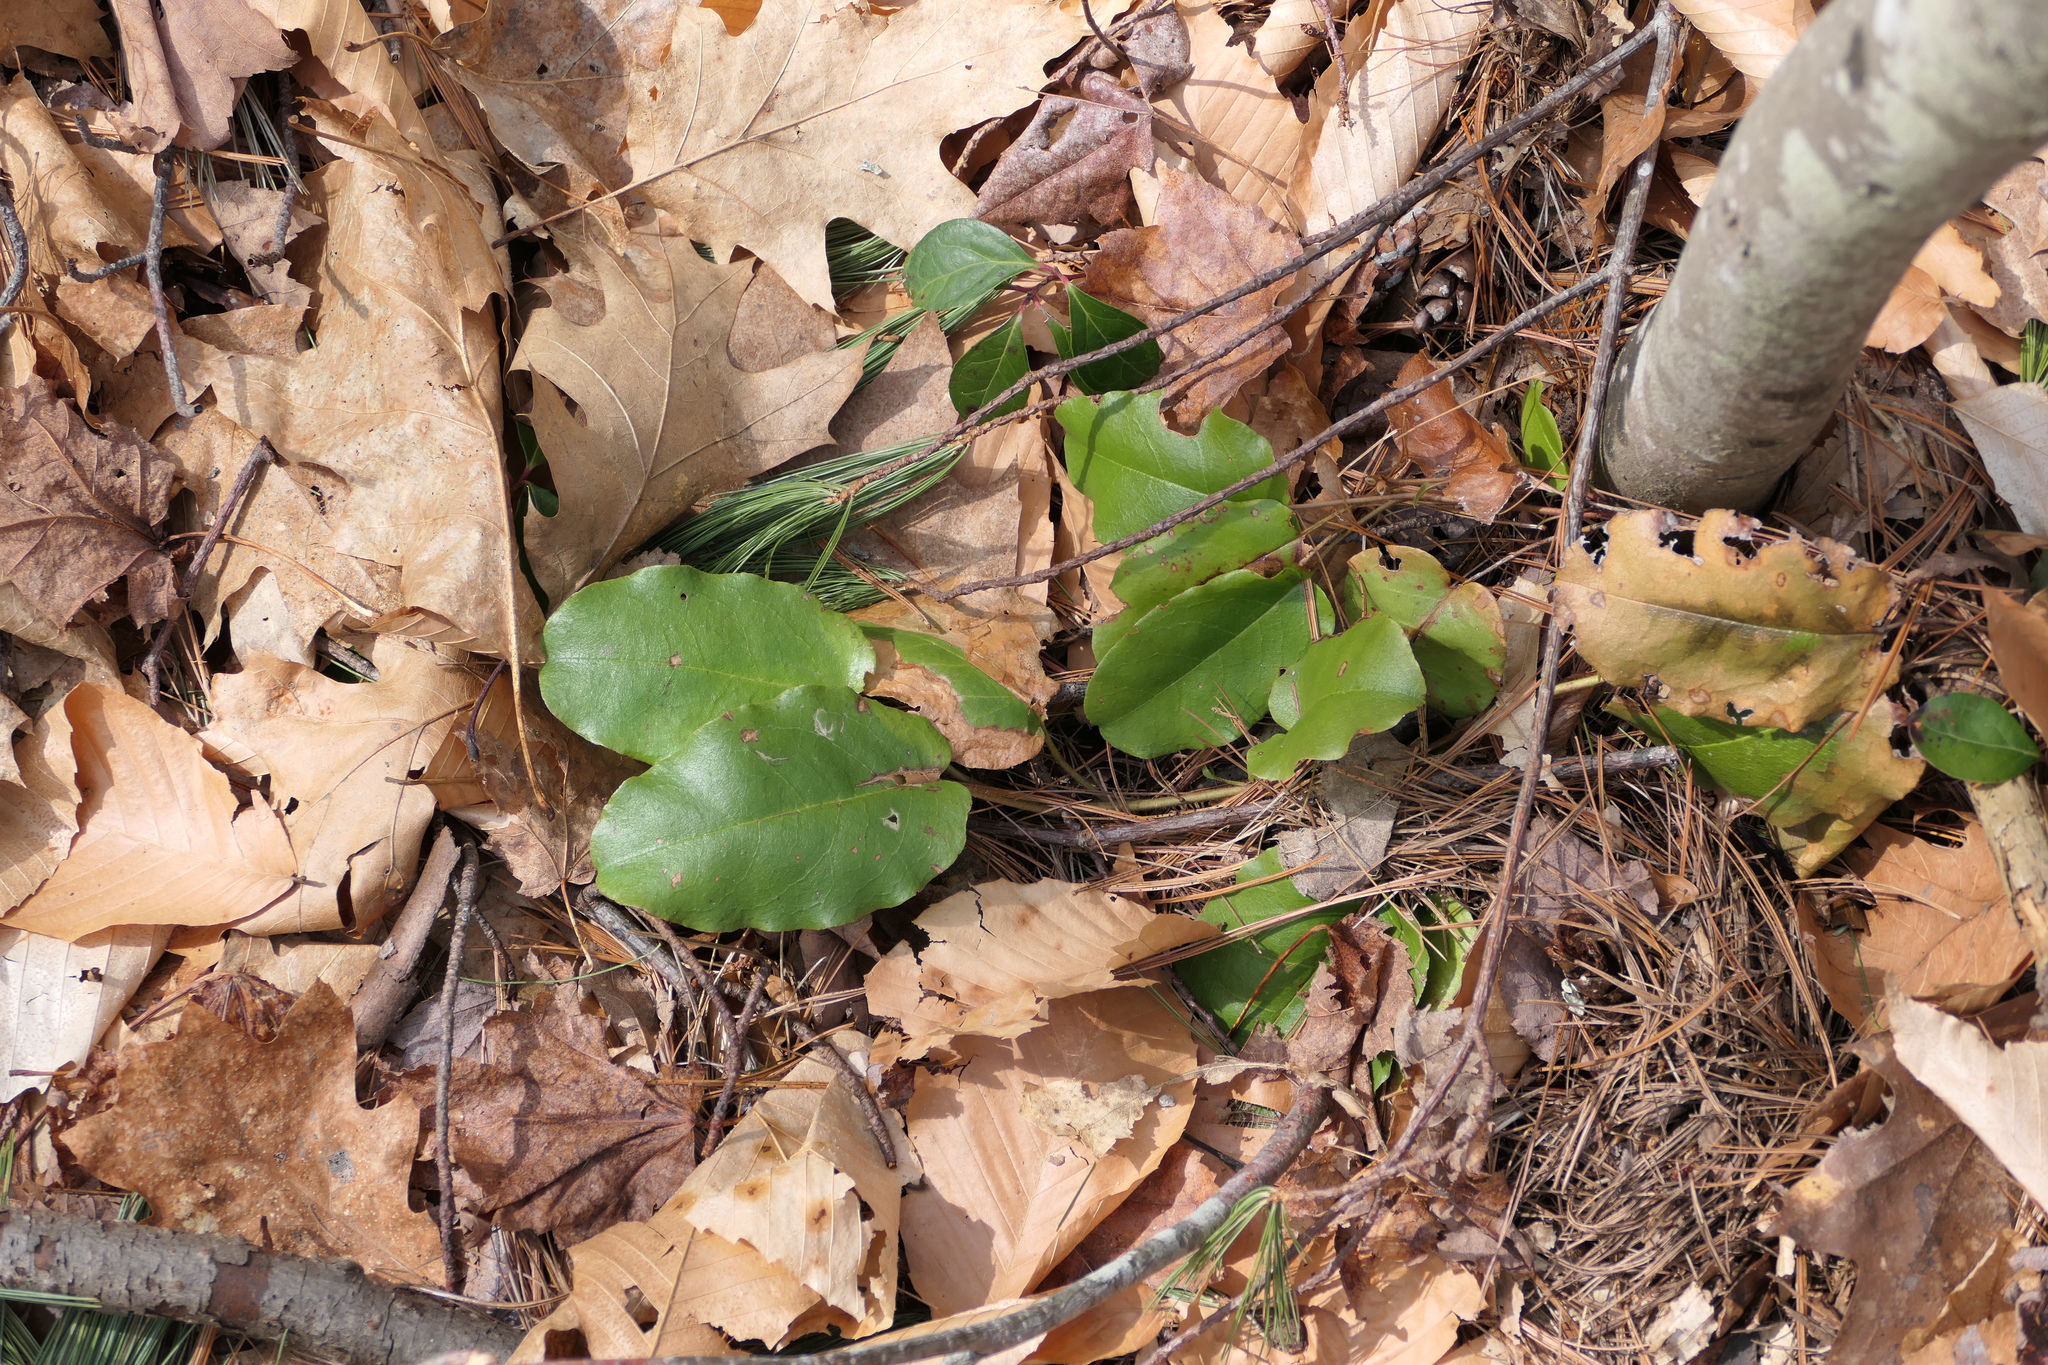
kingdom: Plantae
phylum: Tracheophyta
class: Magnoliopsida
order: Ericales
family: Ericaceae
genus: Epigaea
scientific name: Epigaea repens
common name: Gravelroot
